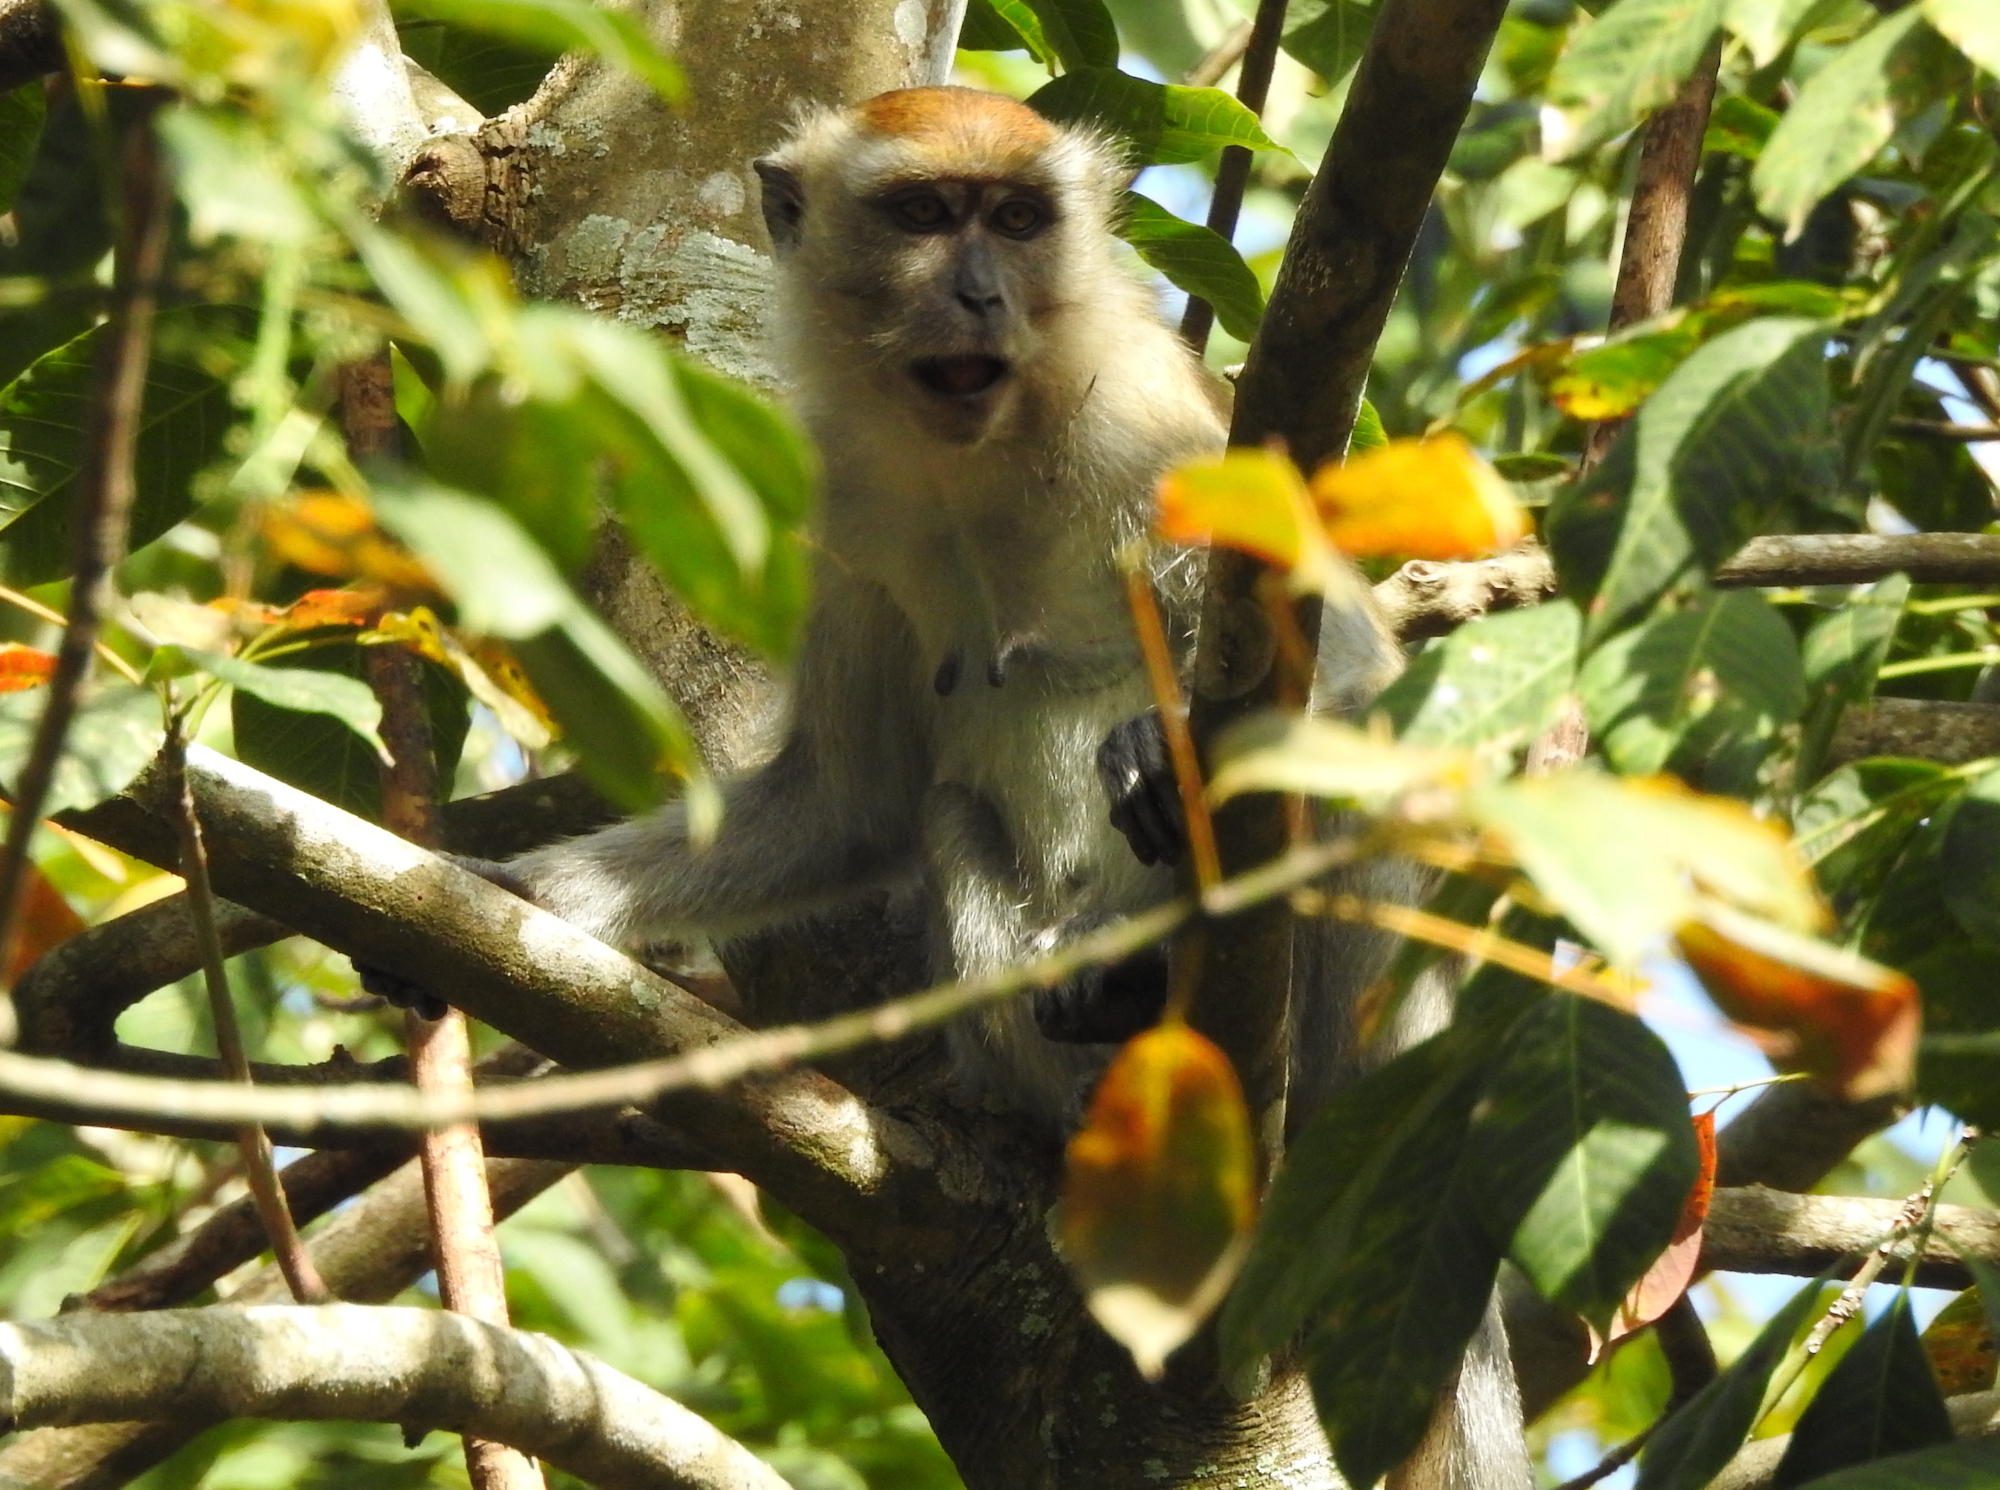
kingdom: Animalia
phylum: Chordata
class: Mammalia
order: Primates
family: Cercopithecidae
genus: Macaca
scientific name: Macaca fascicularis
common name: Crab-eating macaque
